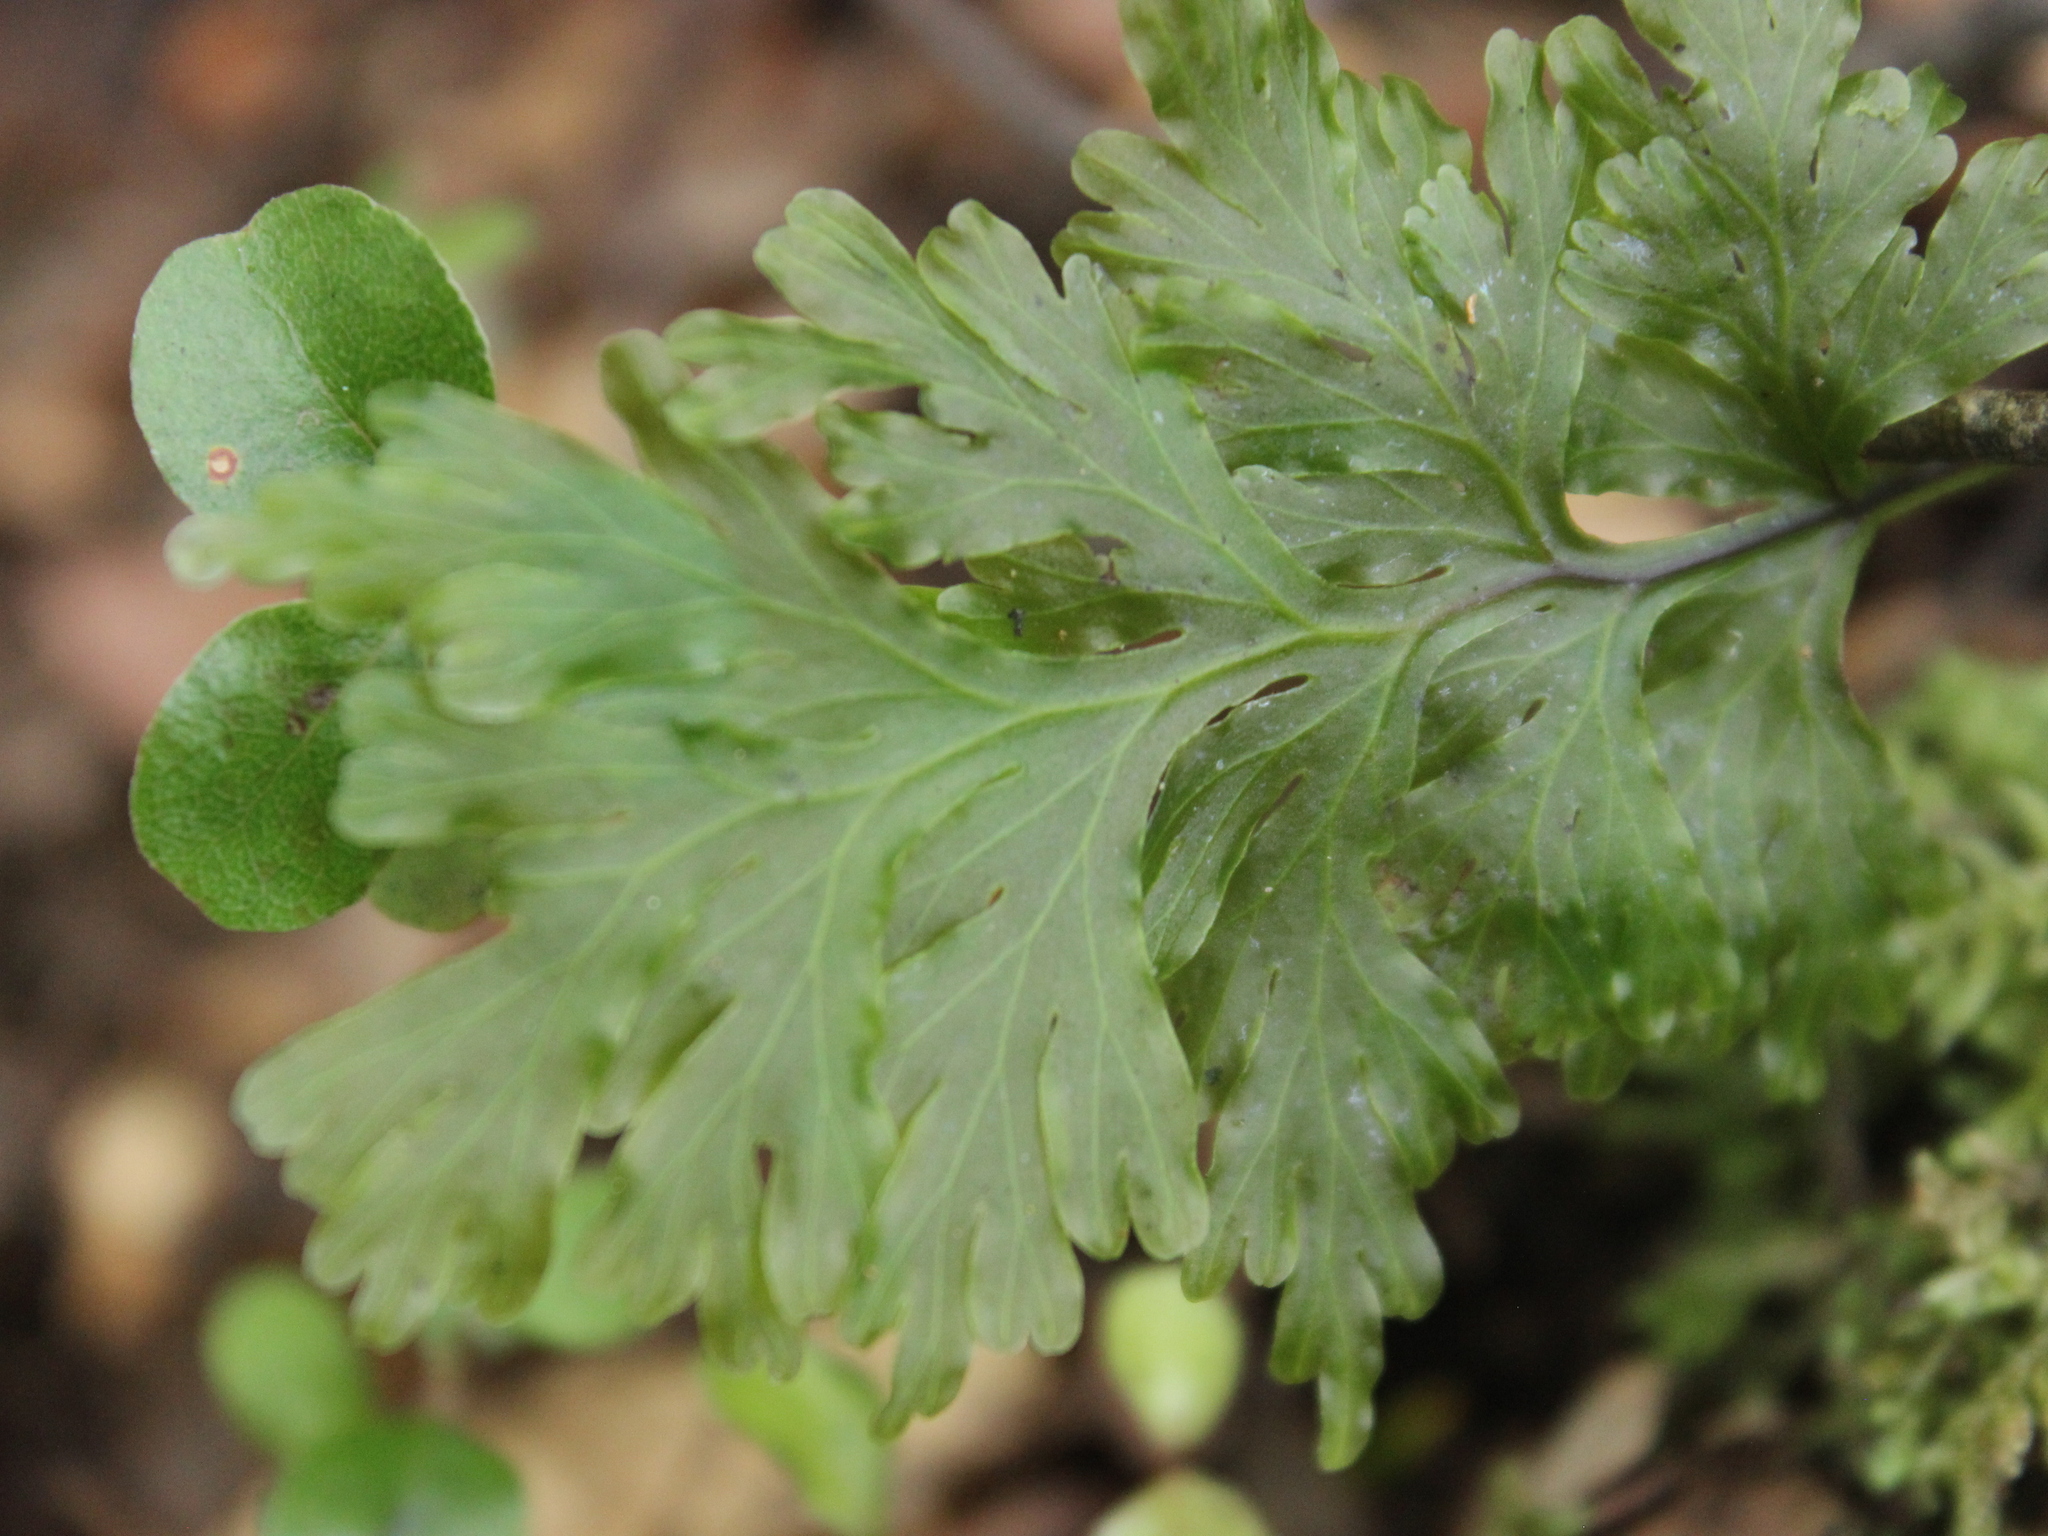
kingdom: Plantae
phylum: Tracheophyta
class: Polypodiopsida
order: Hymenophyllales
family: Hymenophyllaceae
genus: Hymenophyllum
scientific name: Hymenophyllum dilatatum
